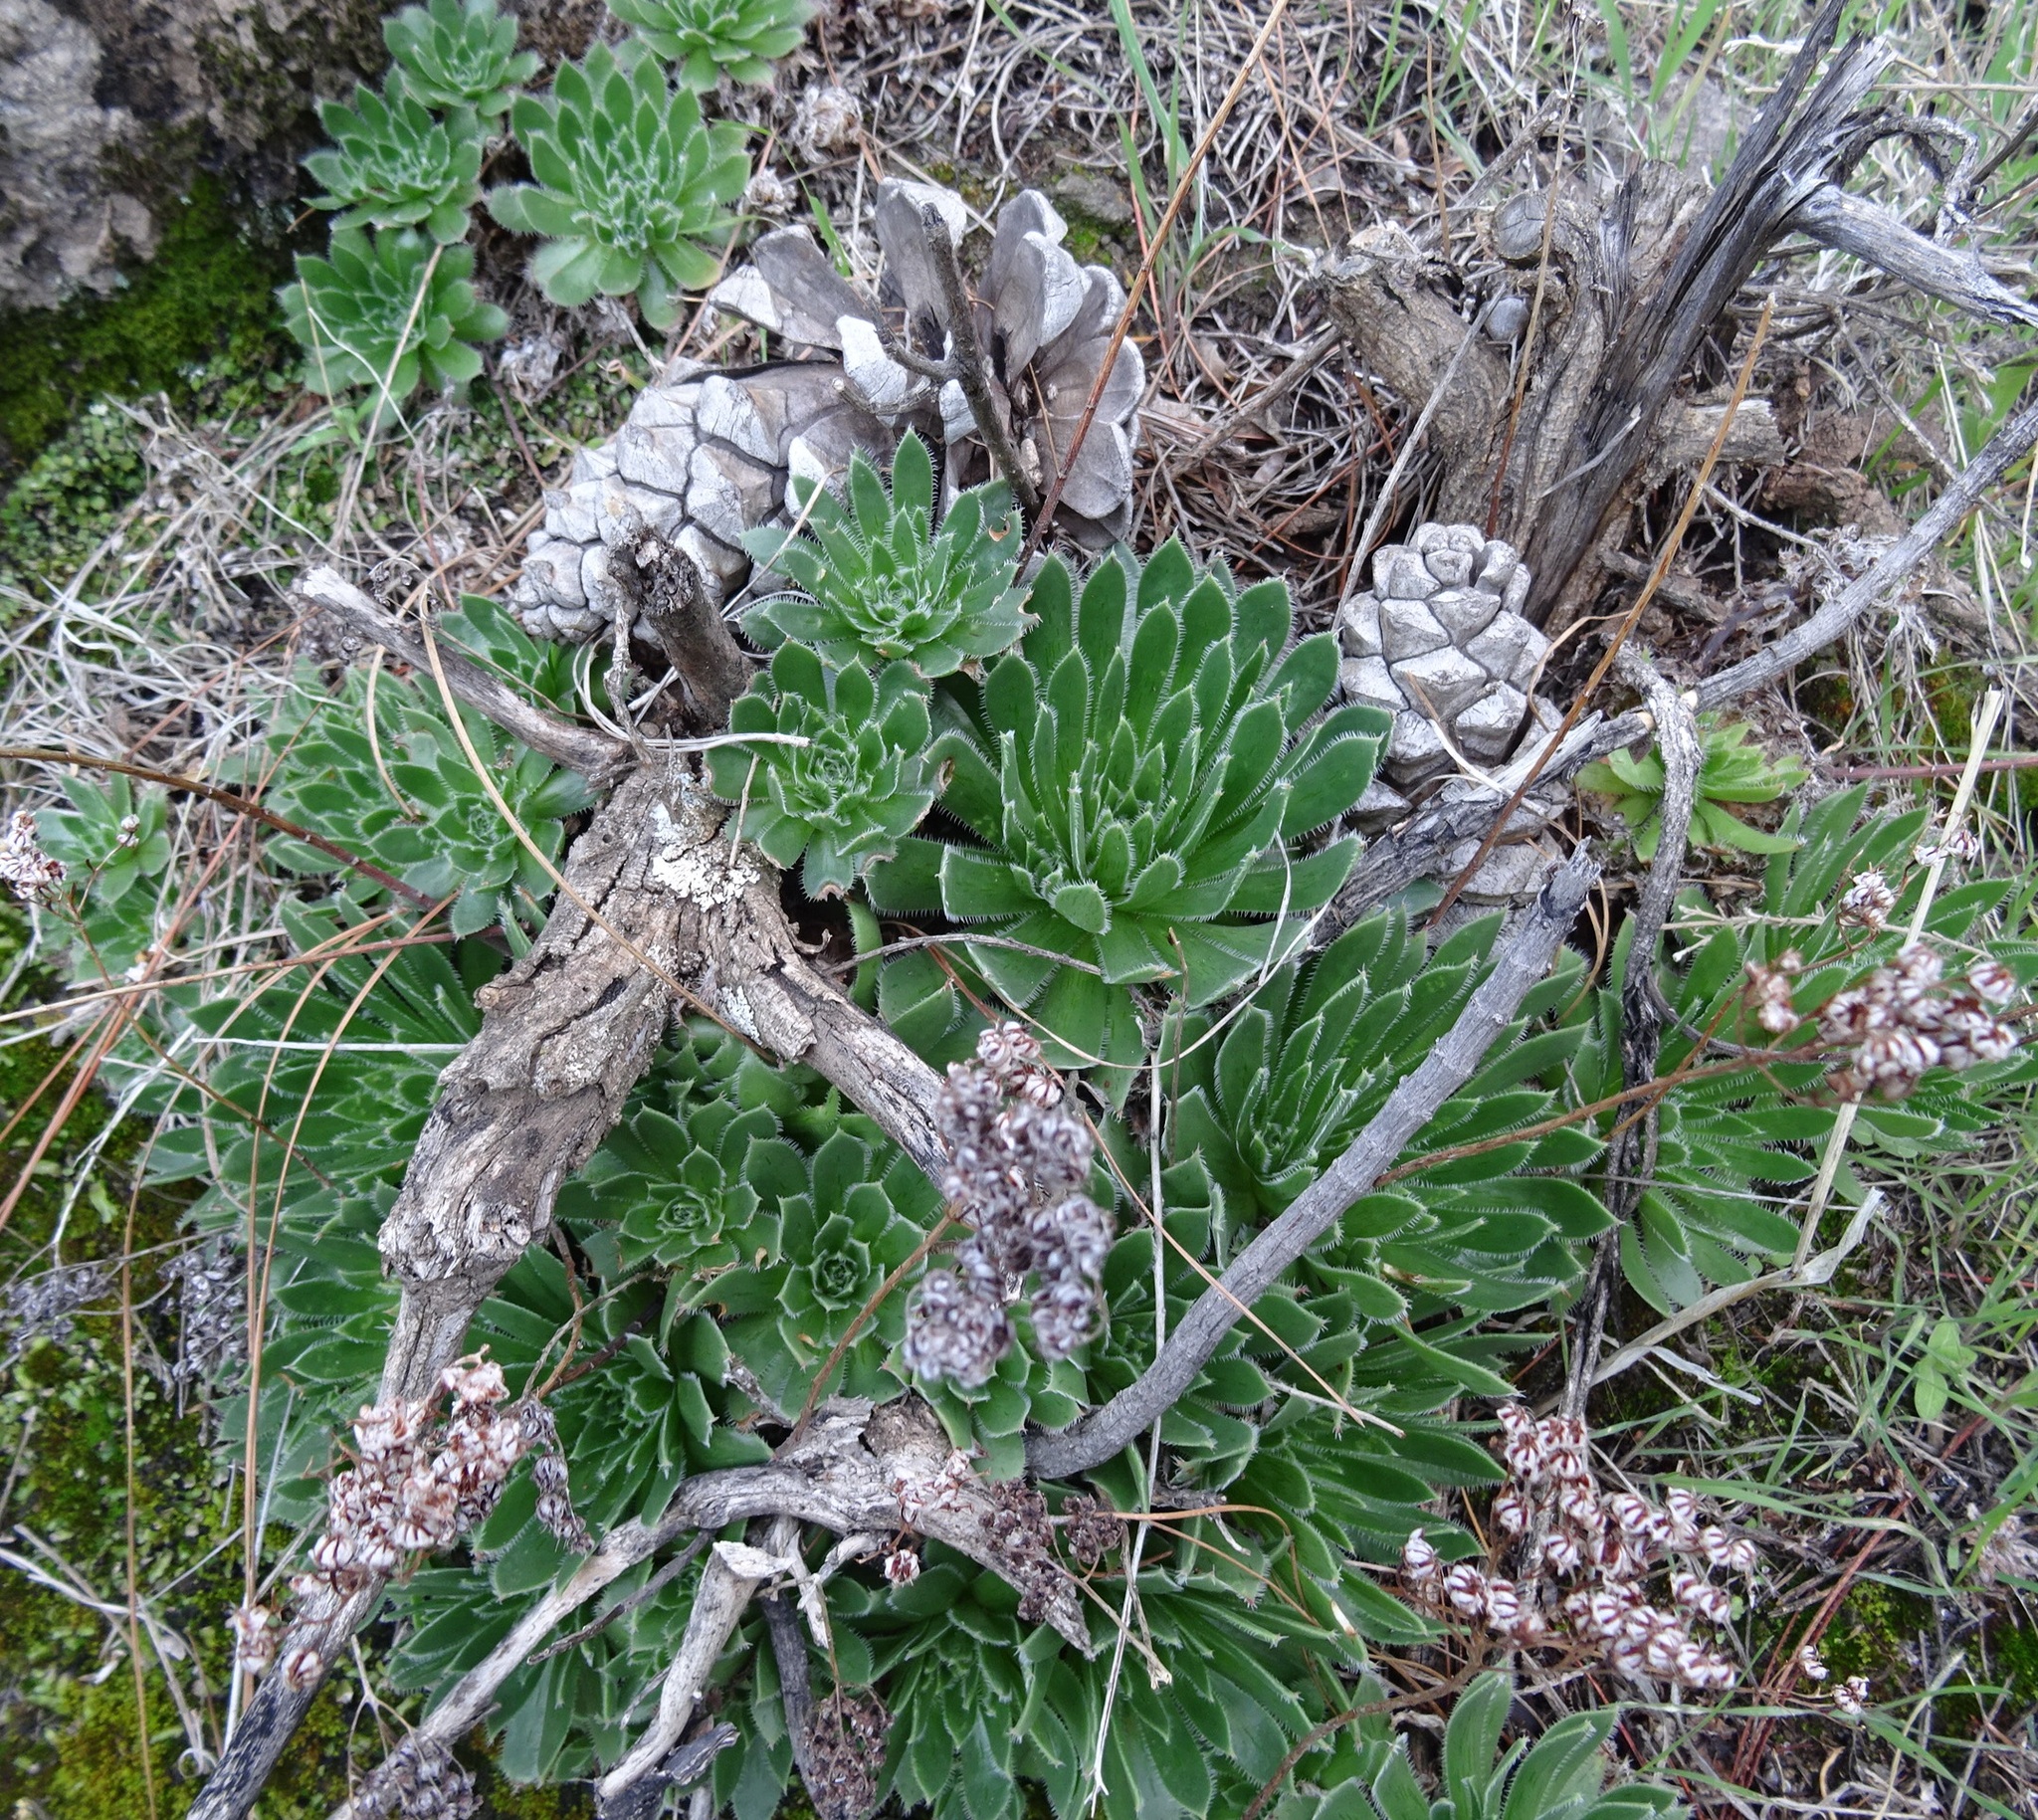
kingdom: Plantae
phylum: Tracheophyta
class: Magnoliopsida
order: Saxifragales
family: Crassulaceae
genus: Aeonium
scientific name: Aeonium simsii
